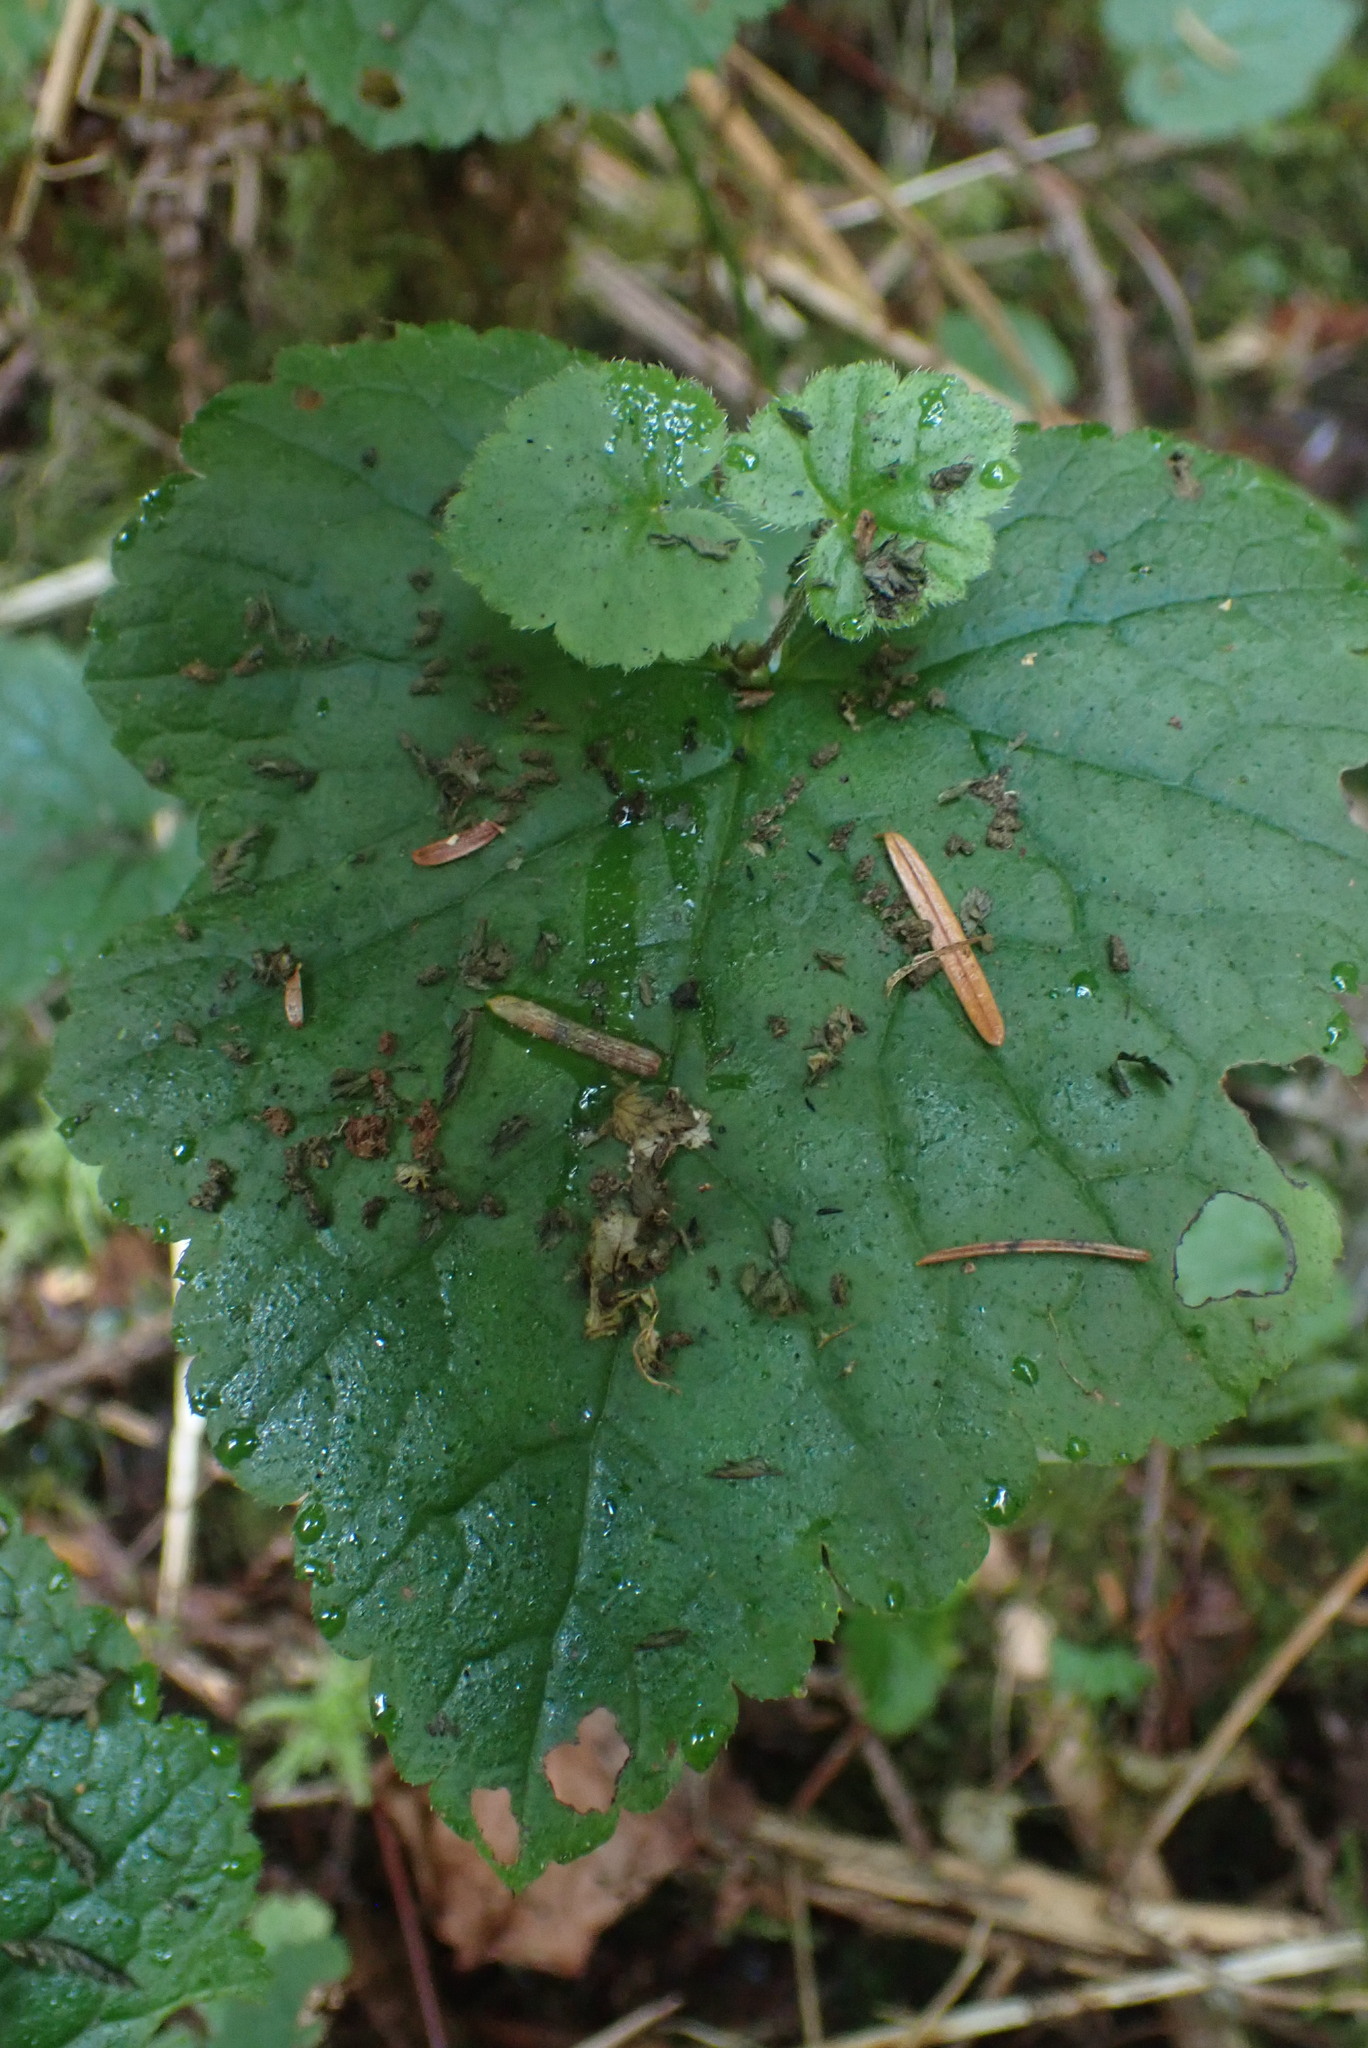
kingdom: Plantae
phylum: Tracheophyta
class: Magnoliopsida
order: Saxifragales
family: Saxifragaceae
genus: Tolmiea
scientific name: Tolmiea menziesii
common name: Pick-a-back-plant
